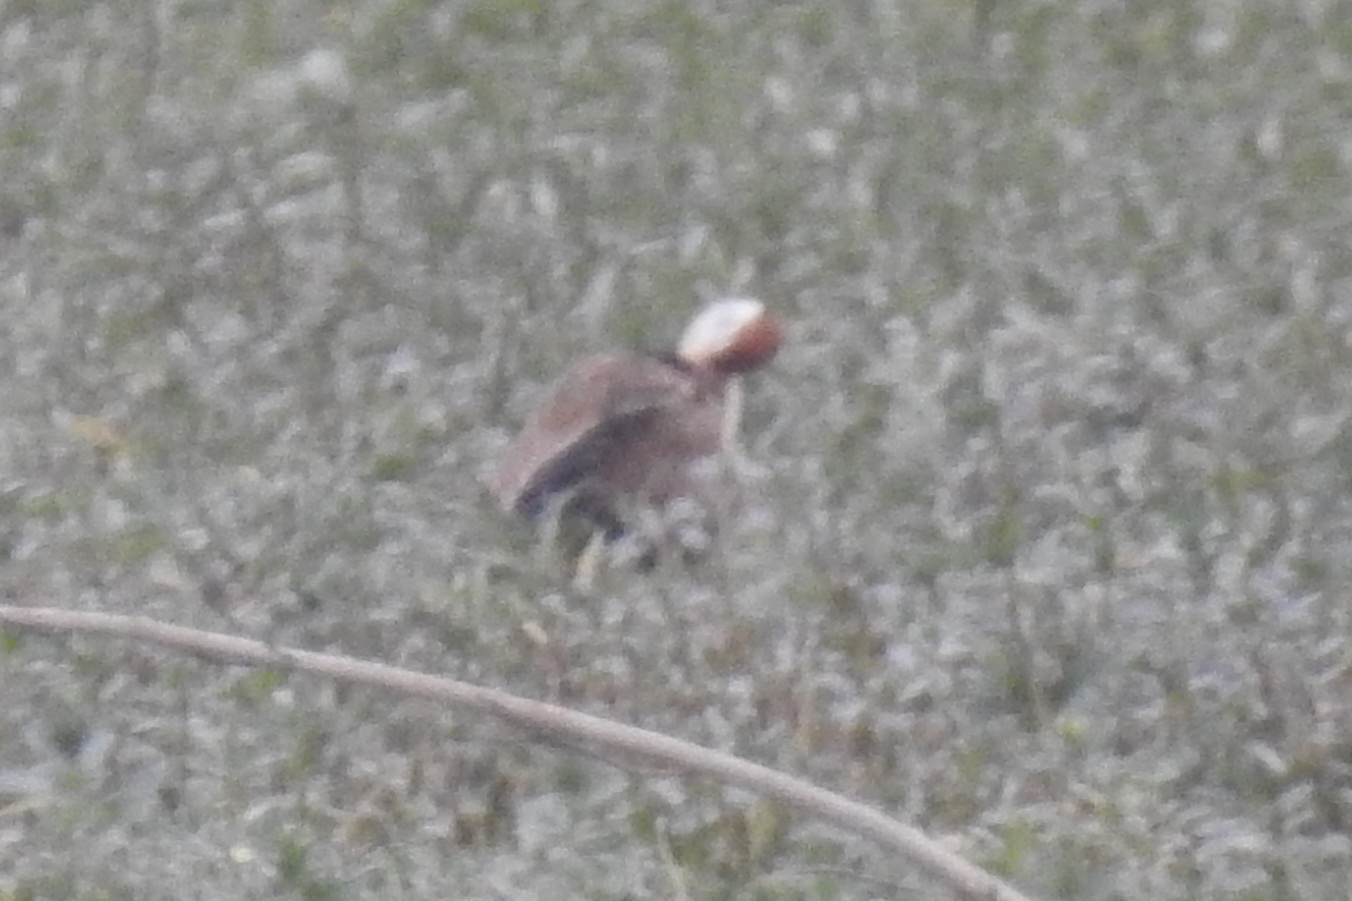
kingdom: Animalia
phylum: Chordata
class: Aves
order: Charadriiformes
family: Jacanidae
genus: Metopidius
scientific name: Metopidius indicus
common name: Bronze-winged jacana
